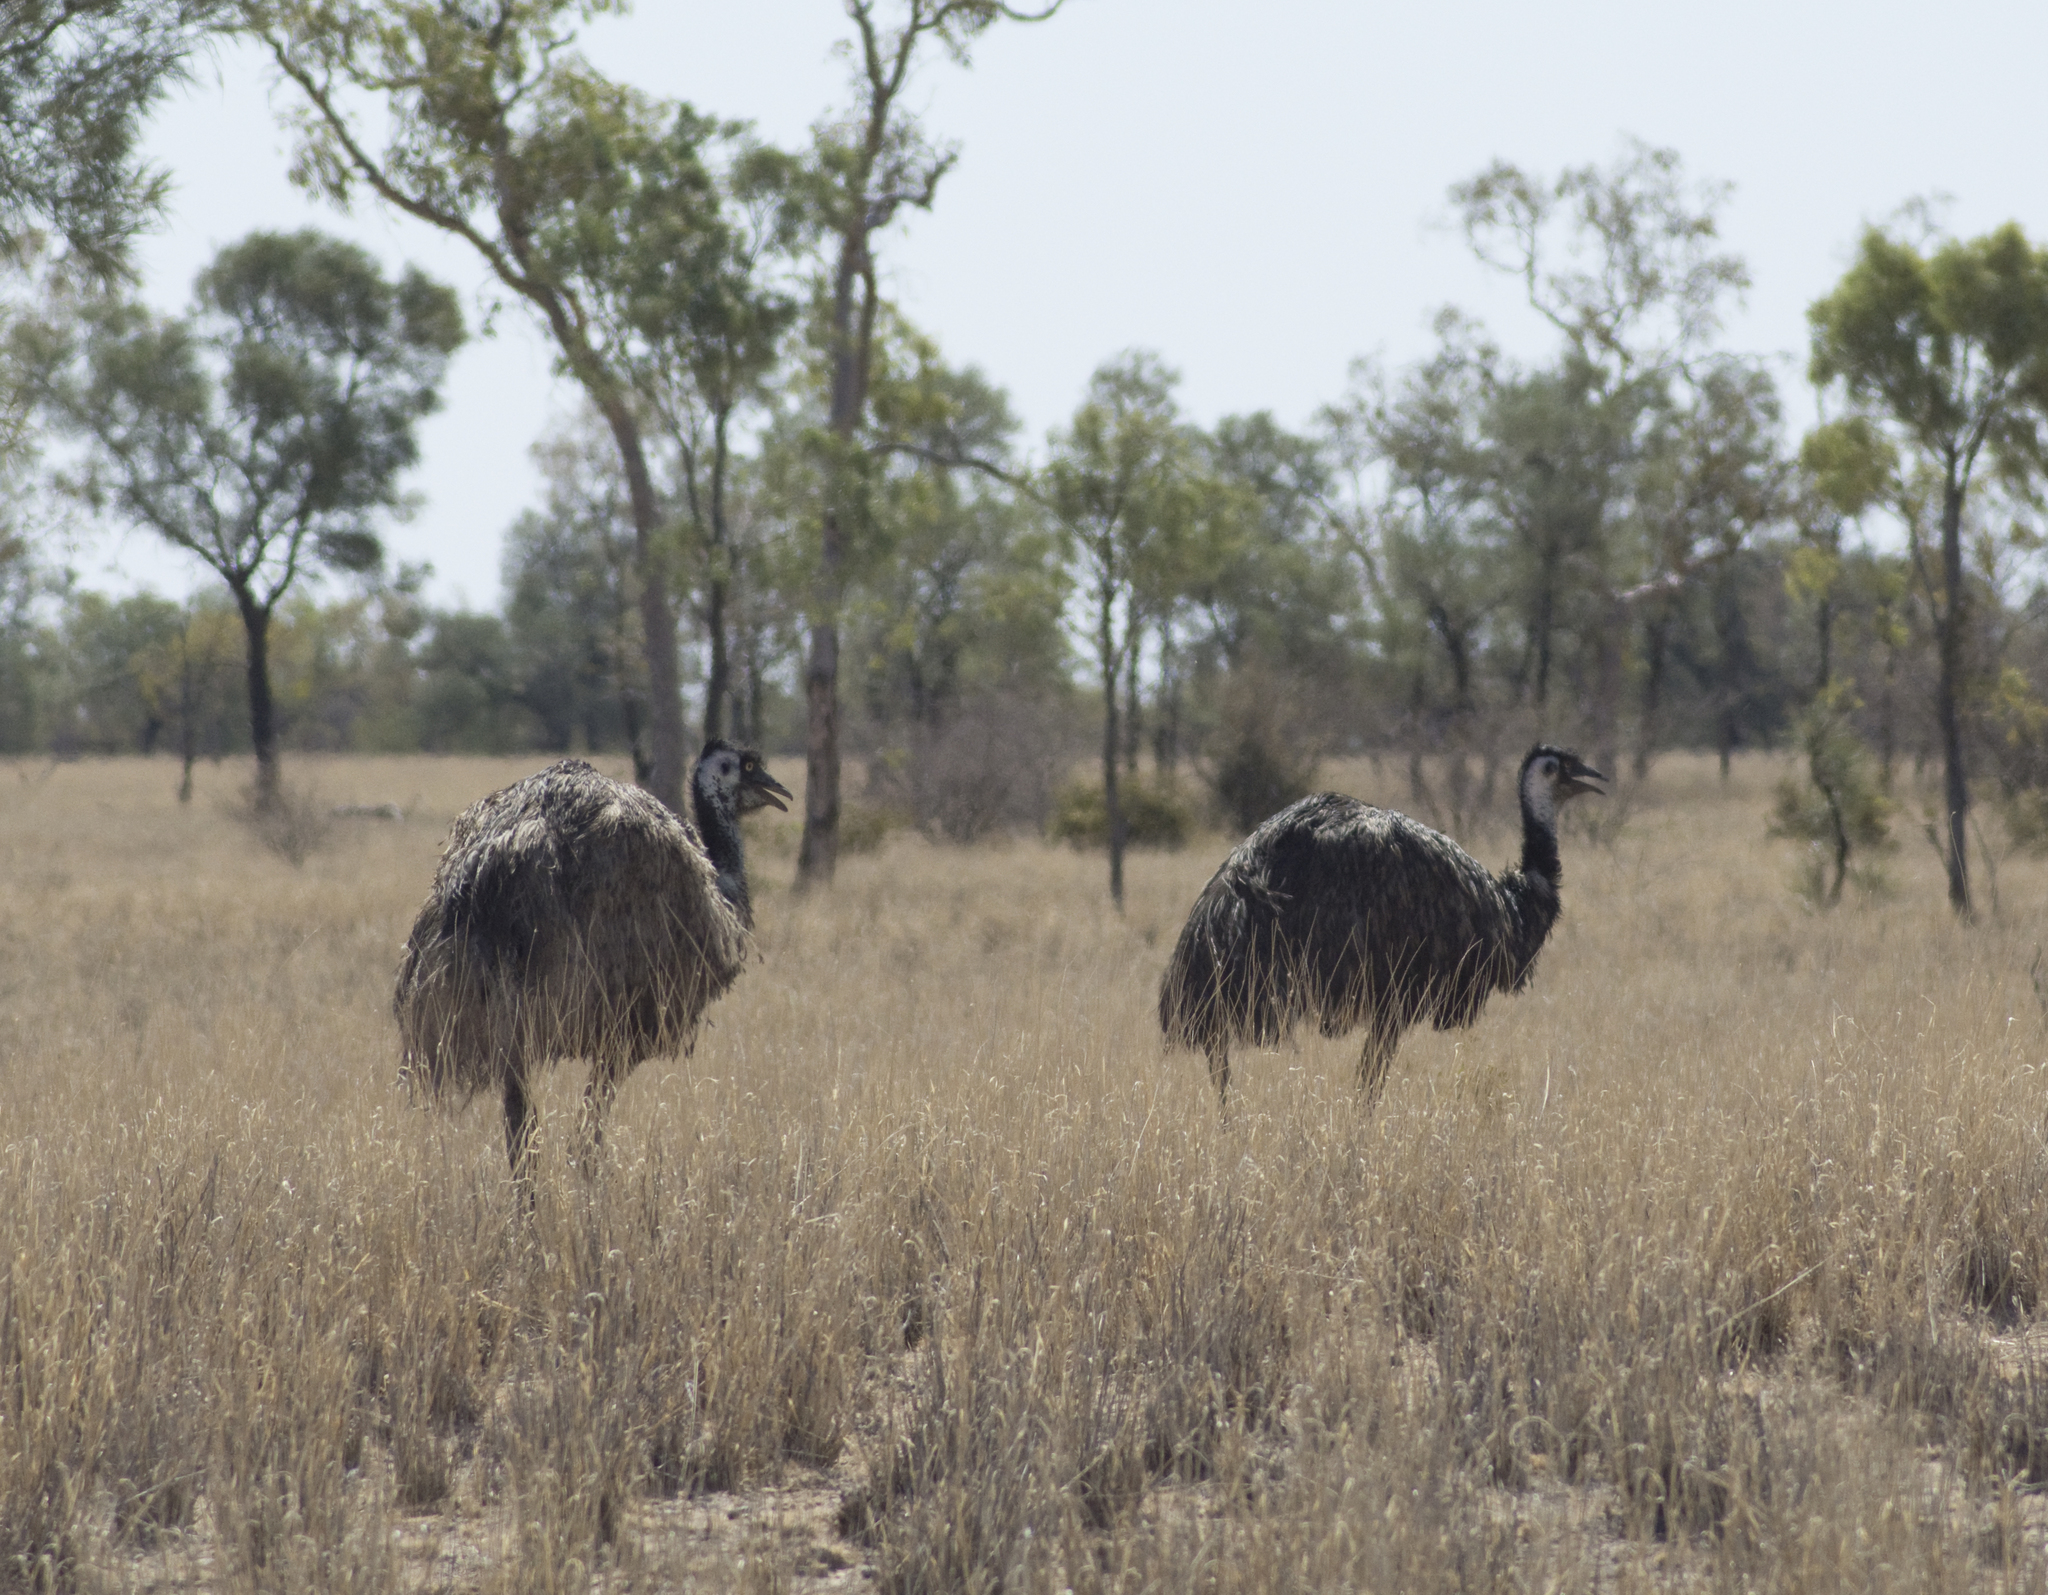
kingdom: Animalia
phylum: Chordata
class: Aves
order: Casuariiformes
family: Dromaiidae
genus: Dromaius
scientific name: Dromaius novaehollandiae
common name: Emu
